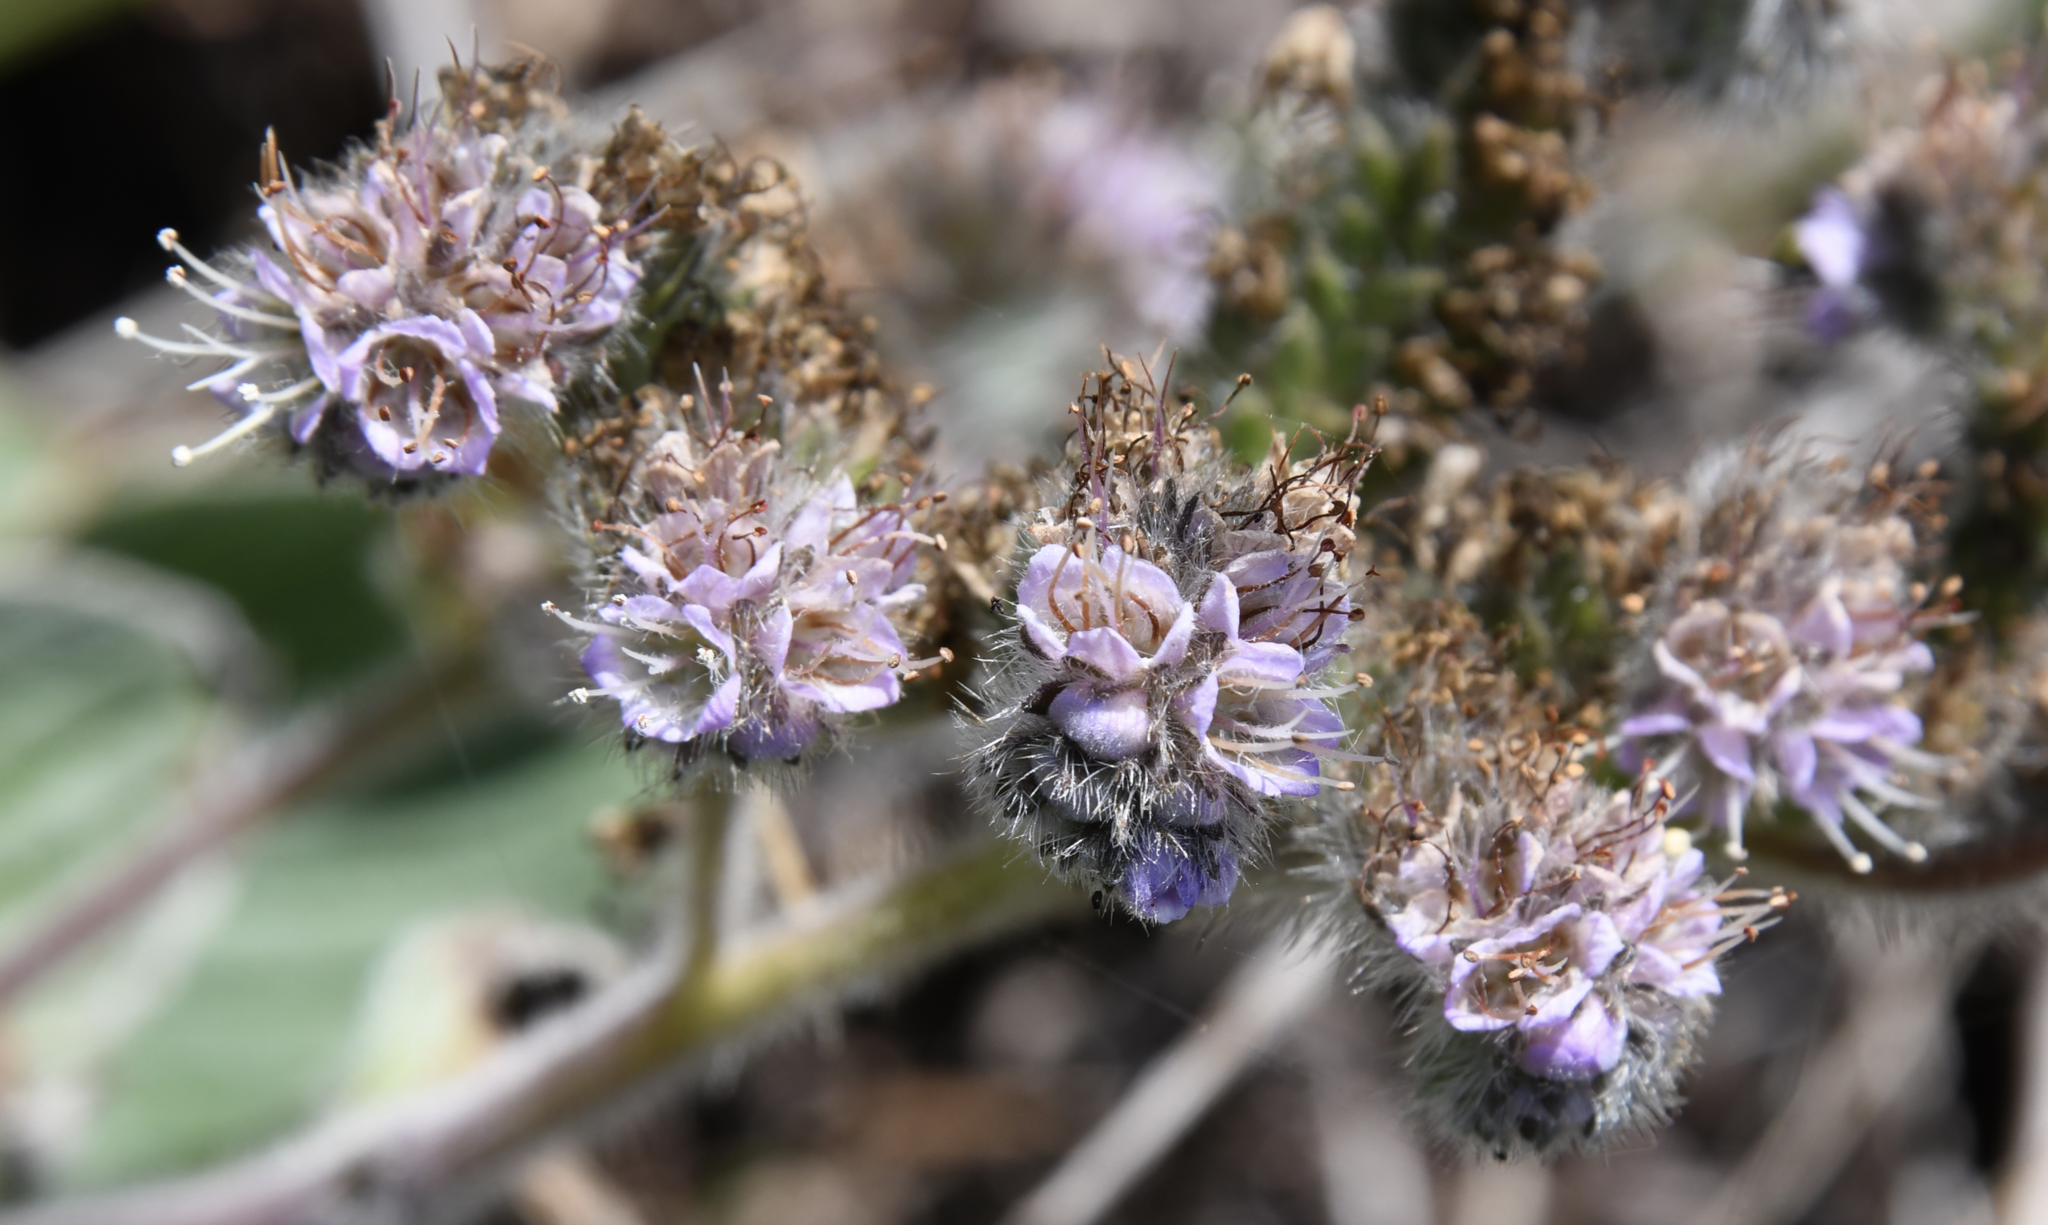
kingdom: Plantae
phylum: Tracheophyta
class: Magnoliopsida
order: Boraginales
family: Hydrophyllaceae
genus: Phacelia
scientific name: Phacelia californica
